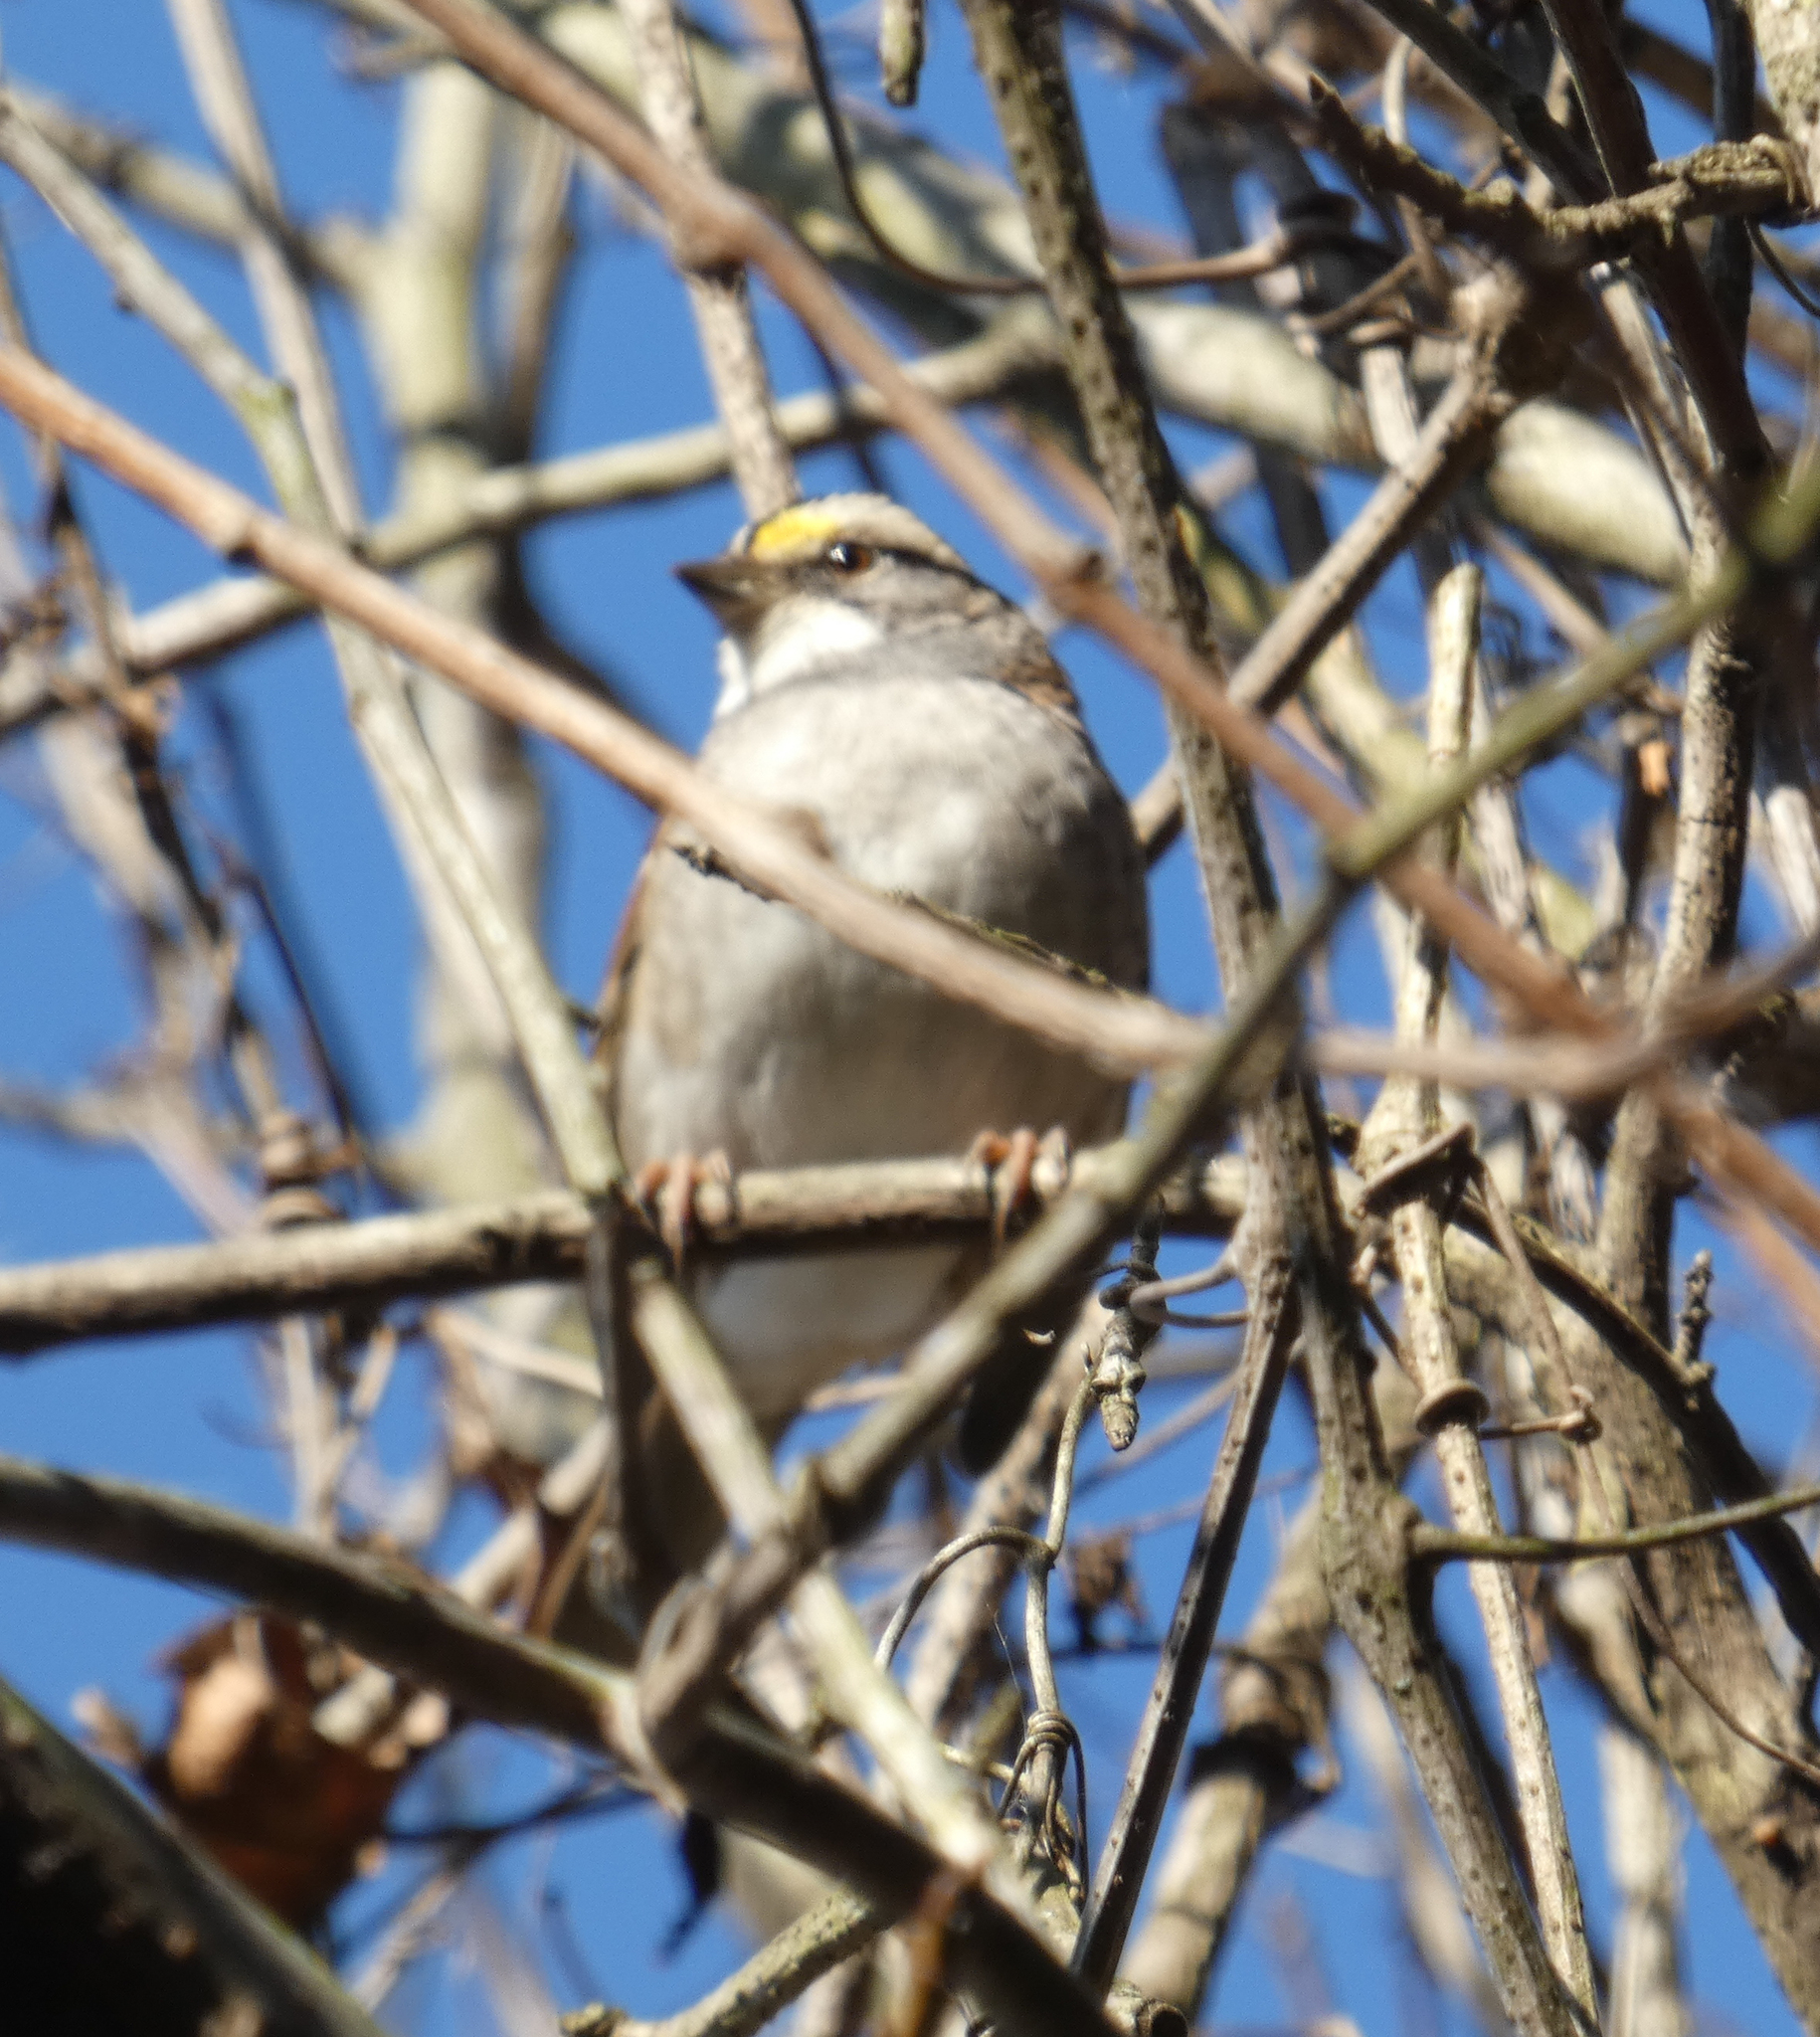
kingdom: Animalia
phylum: Chordata
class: Aves
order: Passeriformes
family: Passerellidae
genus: Zonotrichia
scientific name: Zonotrichia albicollis
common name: White-throated sparrow
